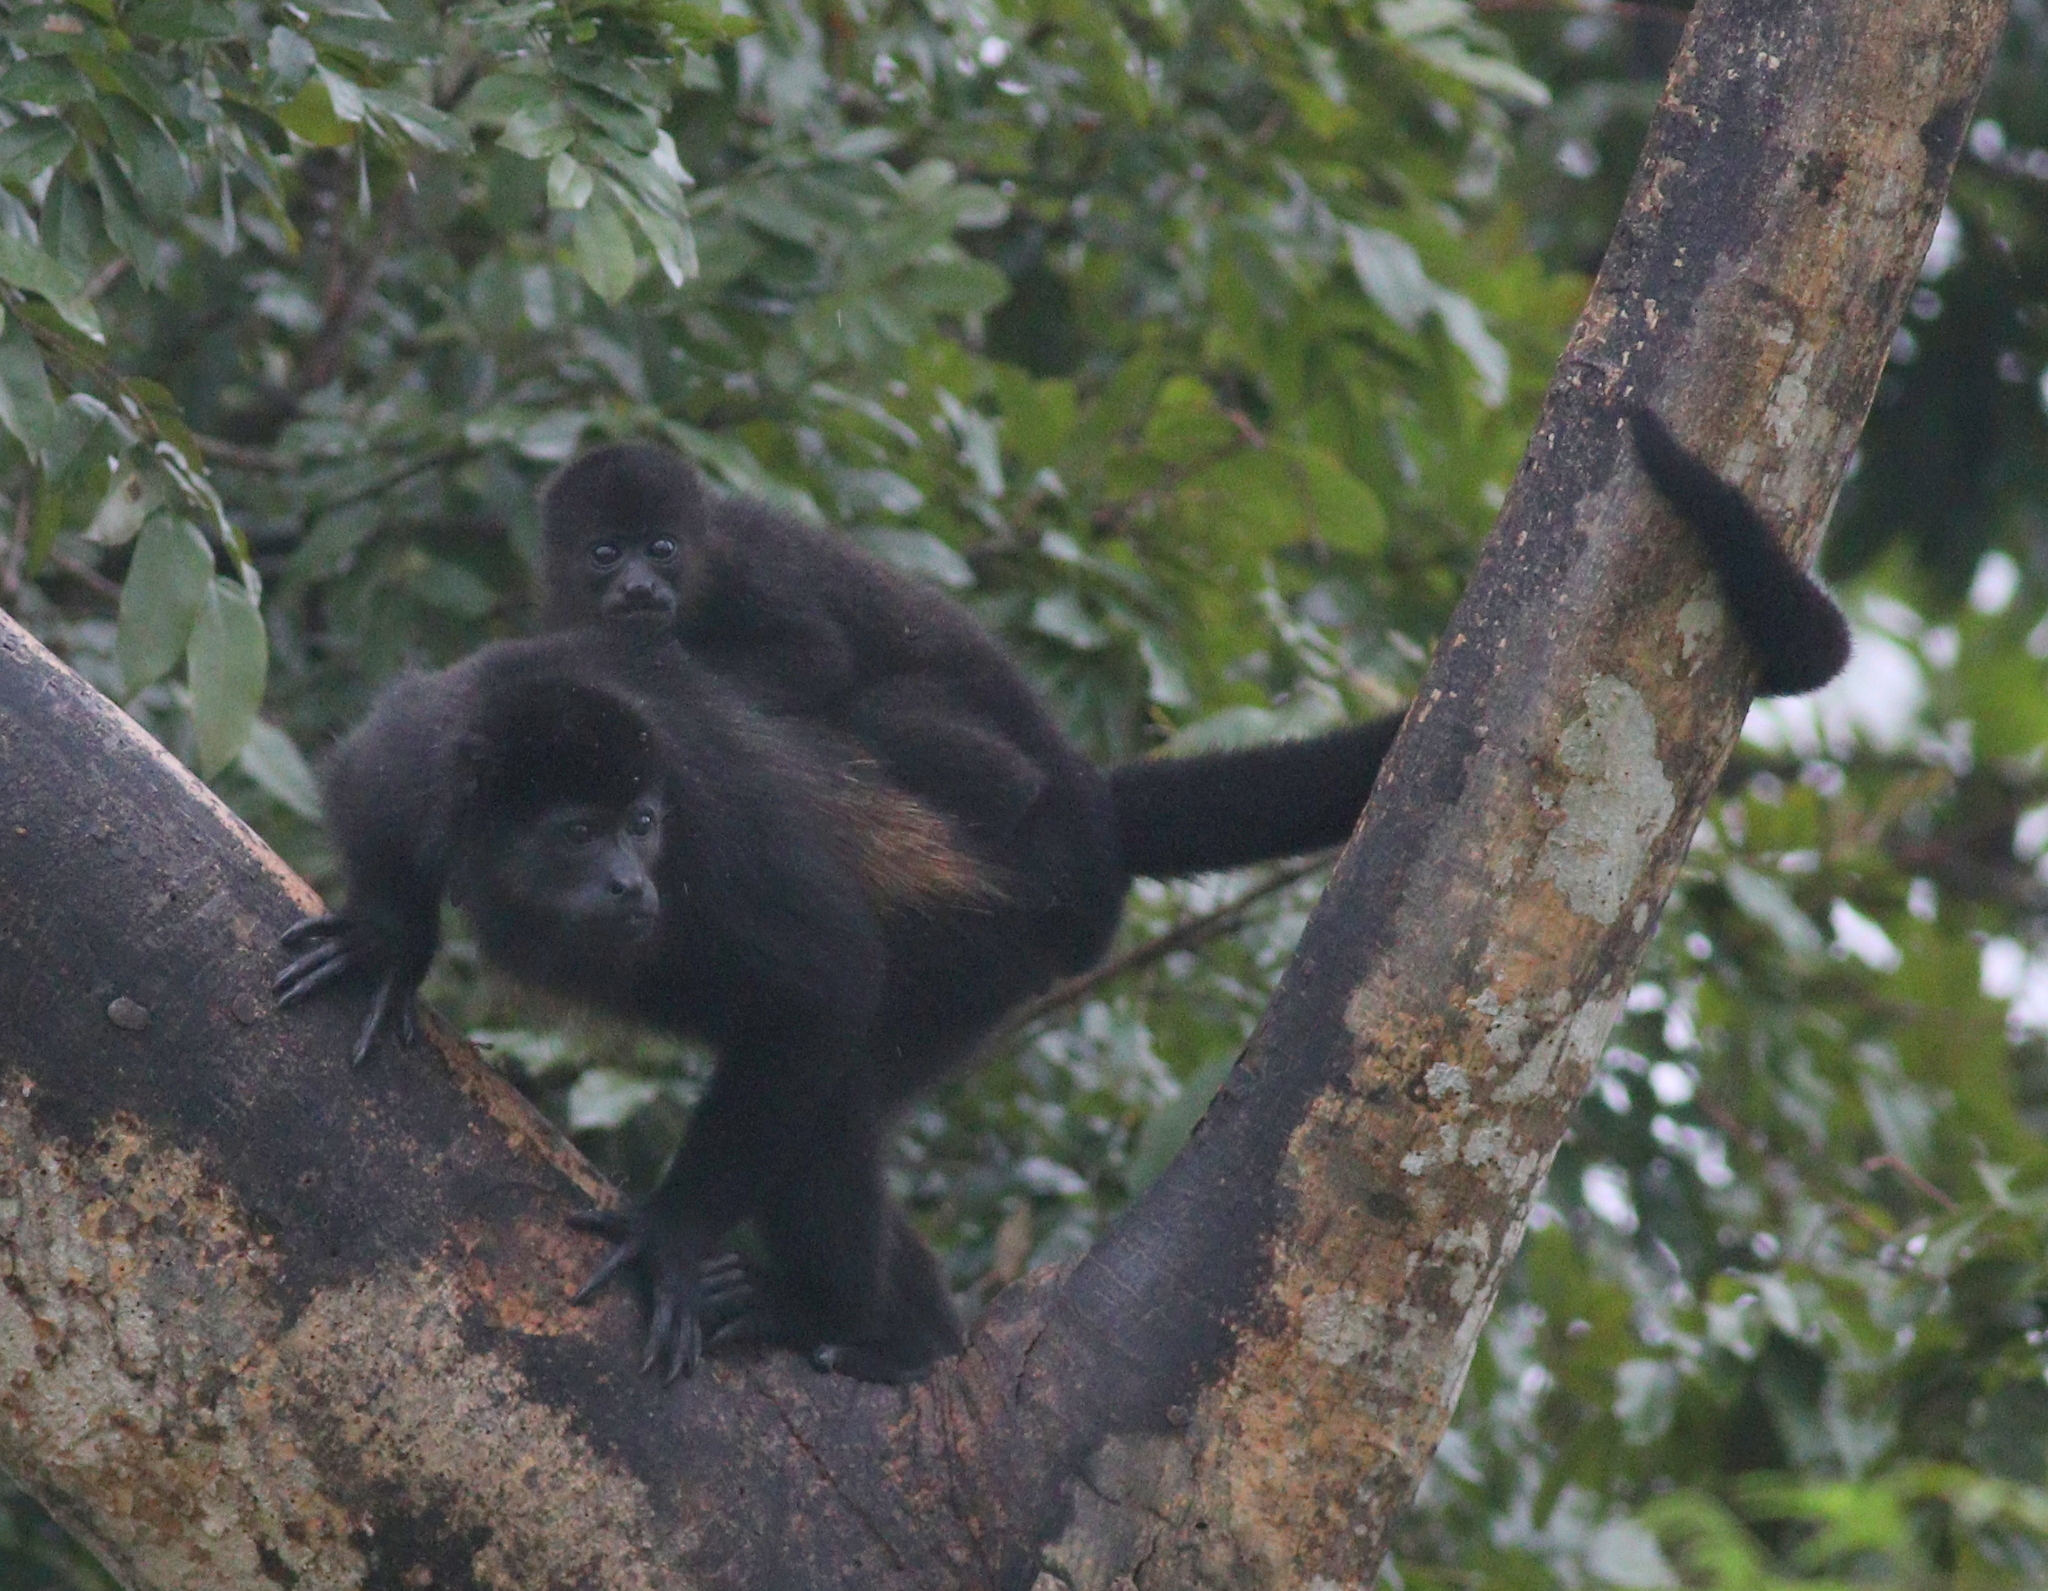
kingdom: Animalia
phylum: Chordata
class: Mammalia
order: Primates
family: Atelidae
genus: Alouatta
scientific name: Alouatta palliata
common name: Mantled howler
